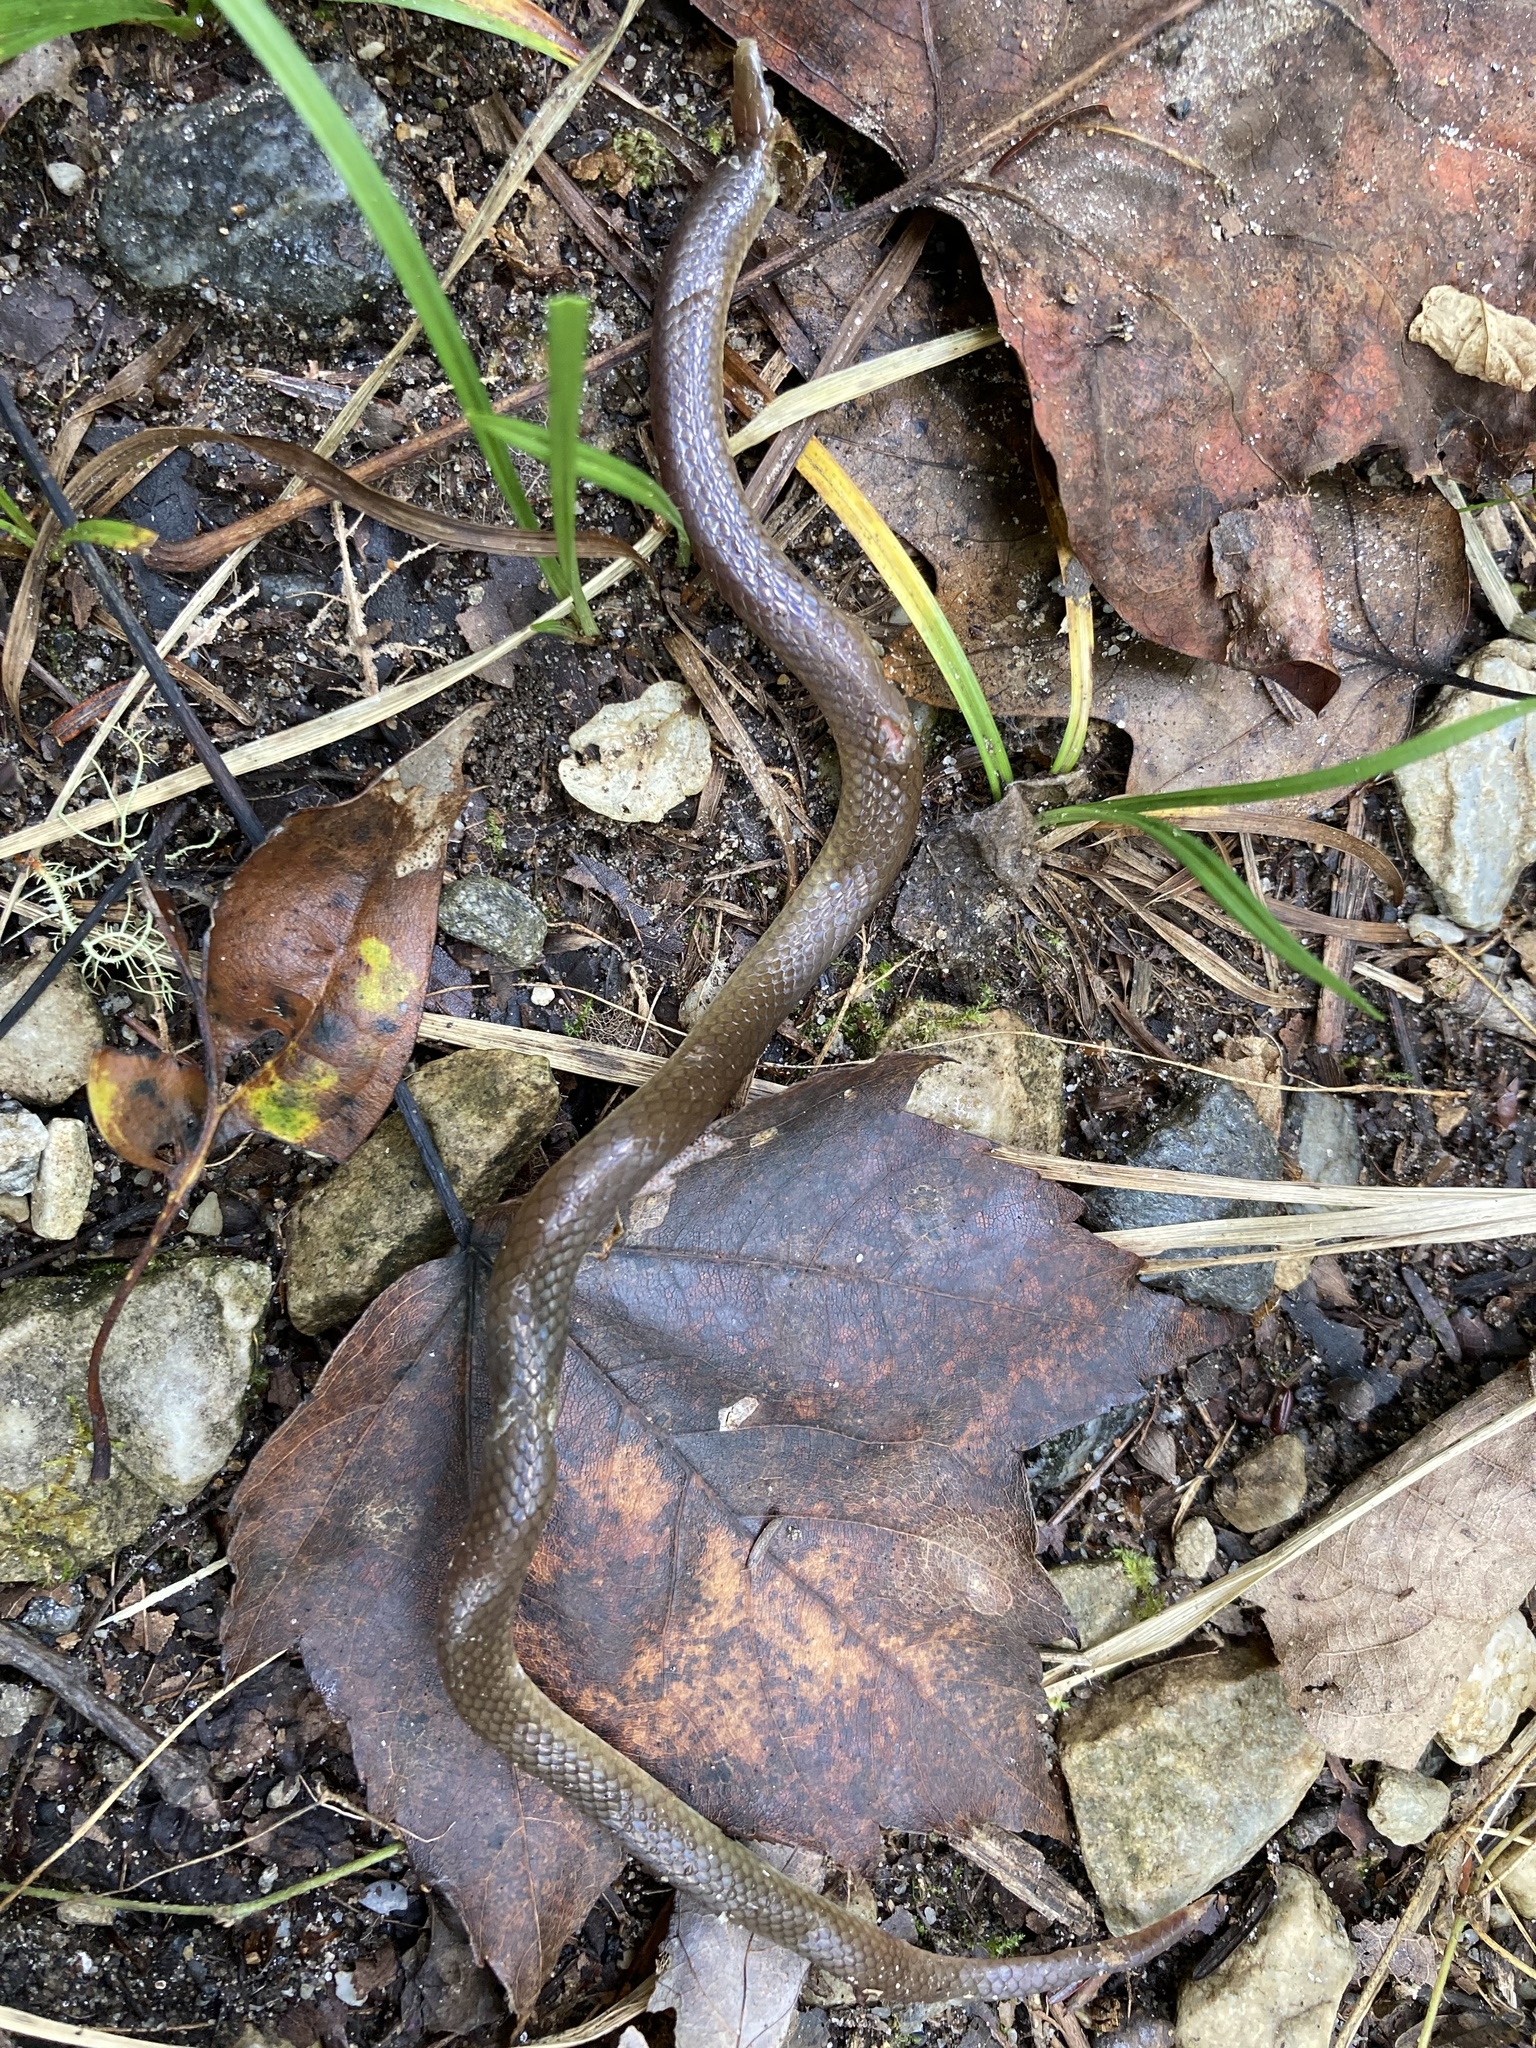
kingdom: Animalia
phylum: Chordata
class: Squamata
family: Colubridae
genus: Carphophis
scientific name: Carphophis amoenus
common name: Eastern worm snake
